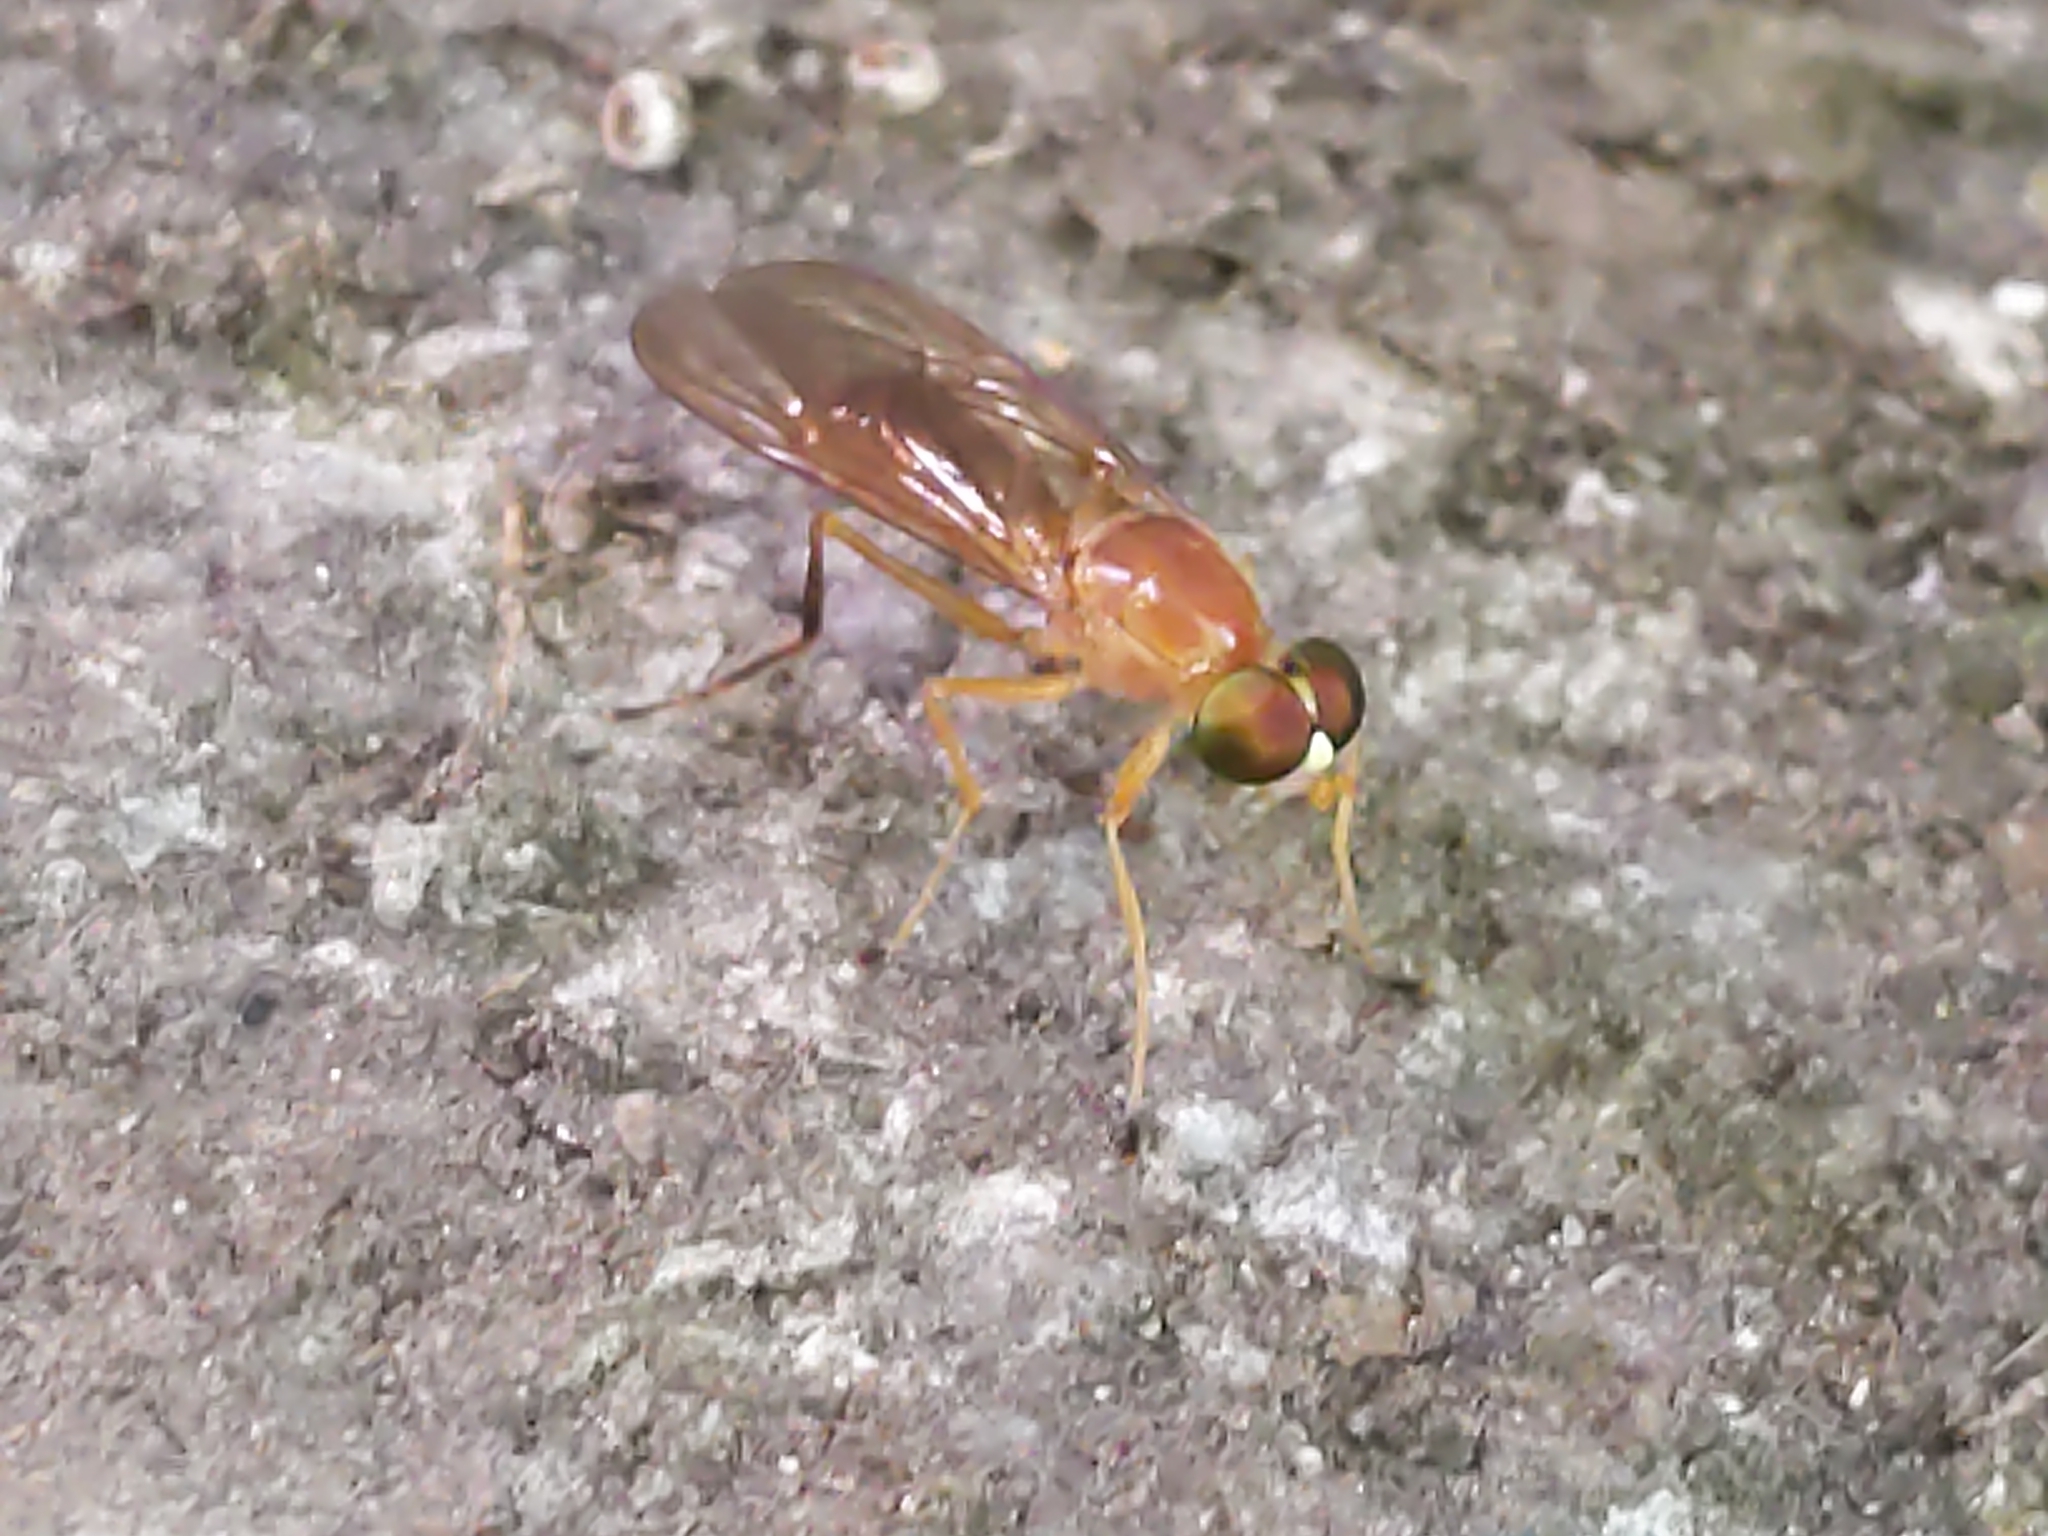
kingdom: Animalia
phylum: Arthropoda
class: Insecta
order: Diptera
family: Stratiomyidae
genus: Ptecticus
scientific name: Ptecticus trivittatus
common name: Compost fly
